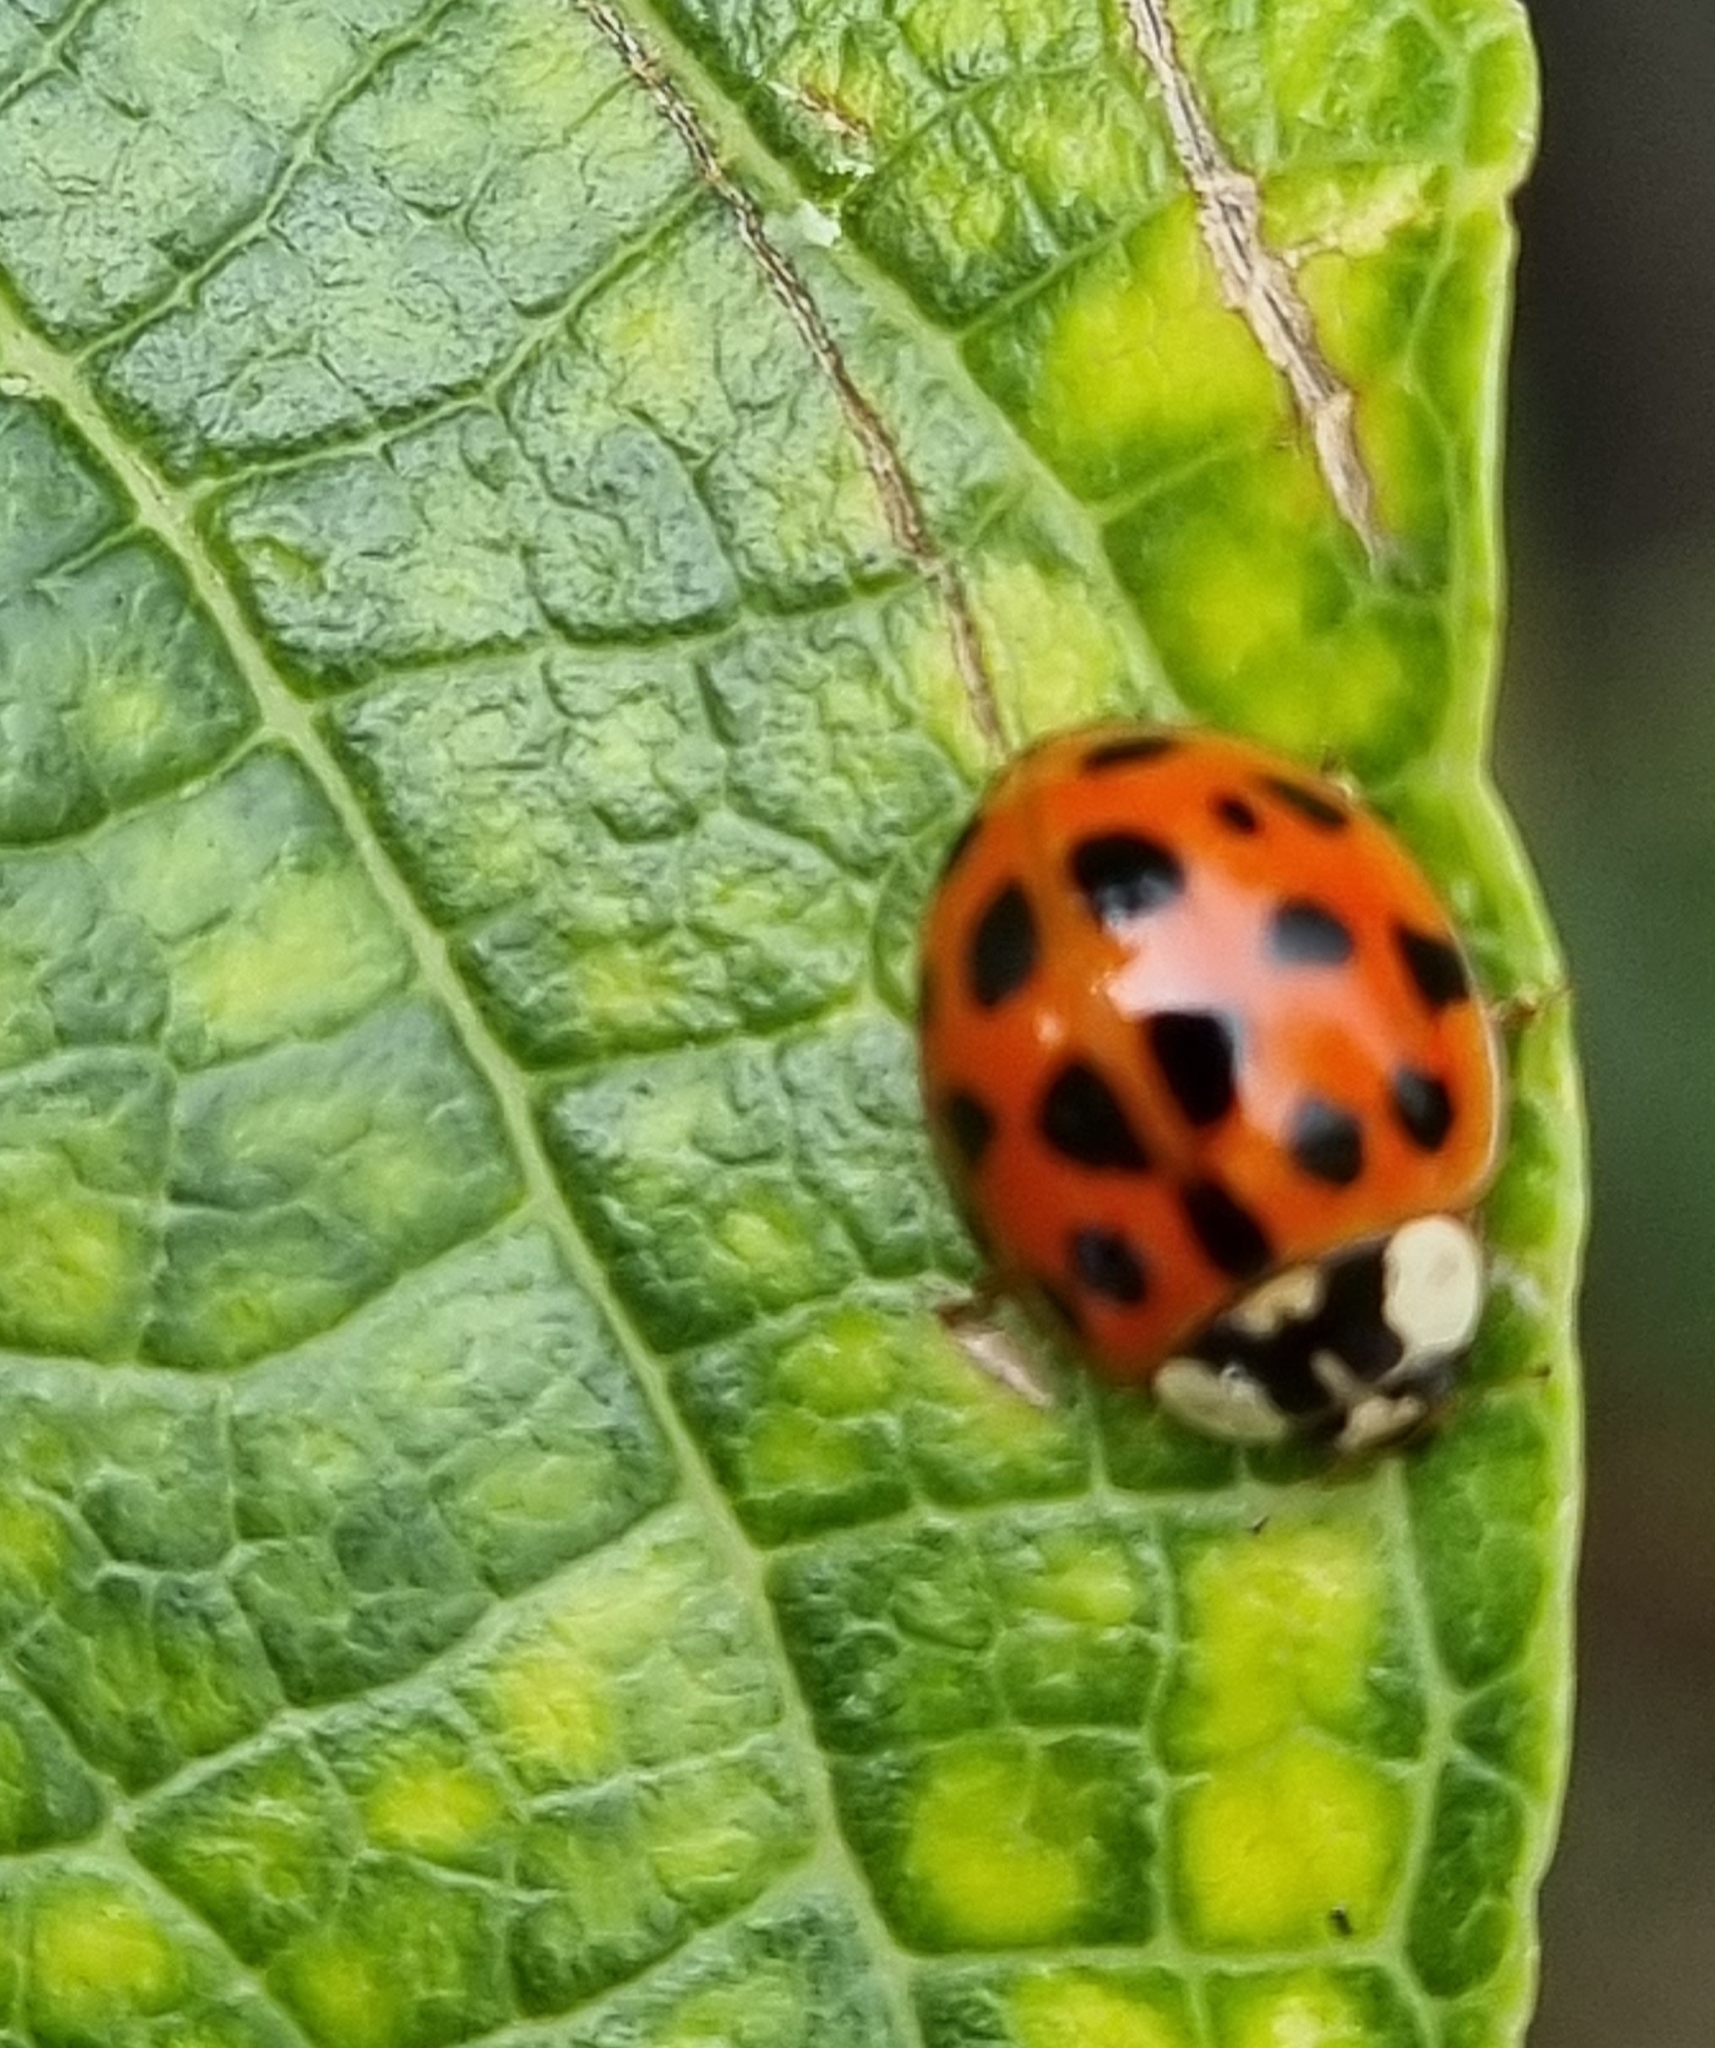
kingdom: Animalia
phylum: Arthropoda
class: Insecta
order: Coleoptera
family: Coccinellidae
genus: Harmonia
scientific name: Harmonia axyridis
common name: Harlequin ladybird
